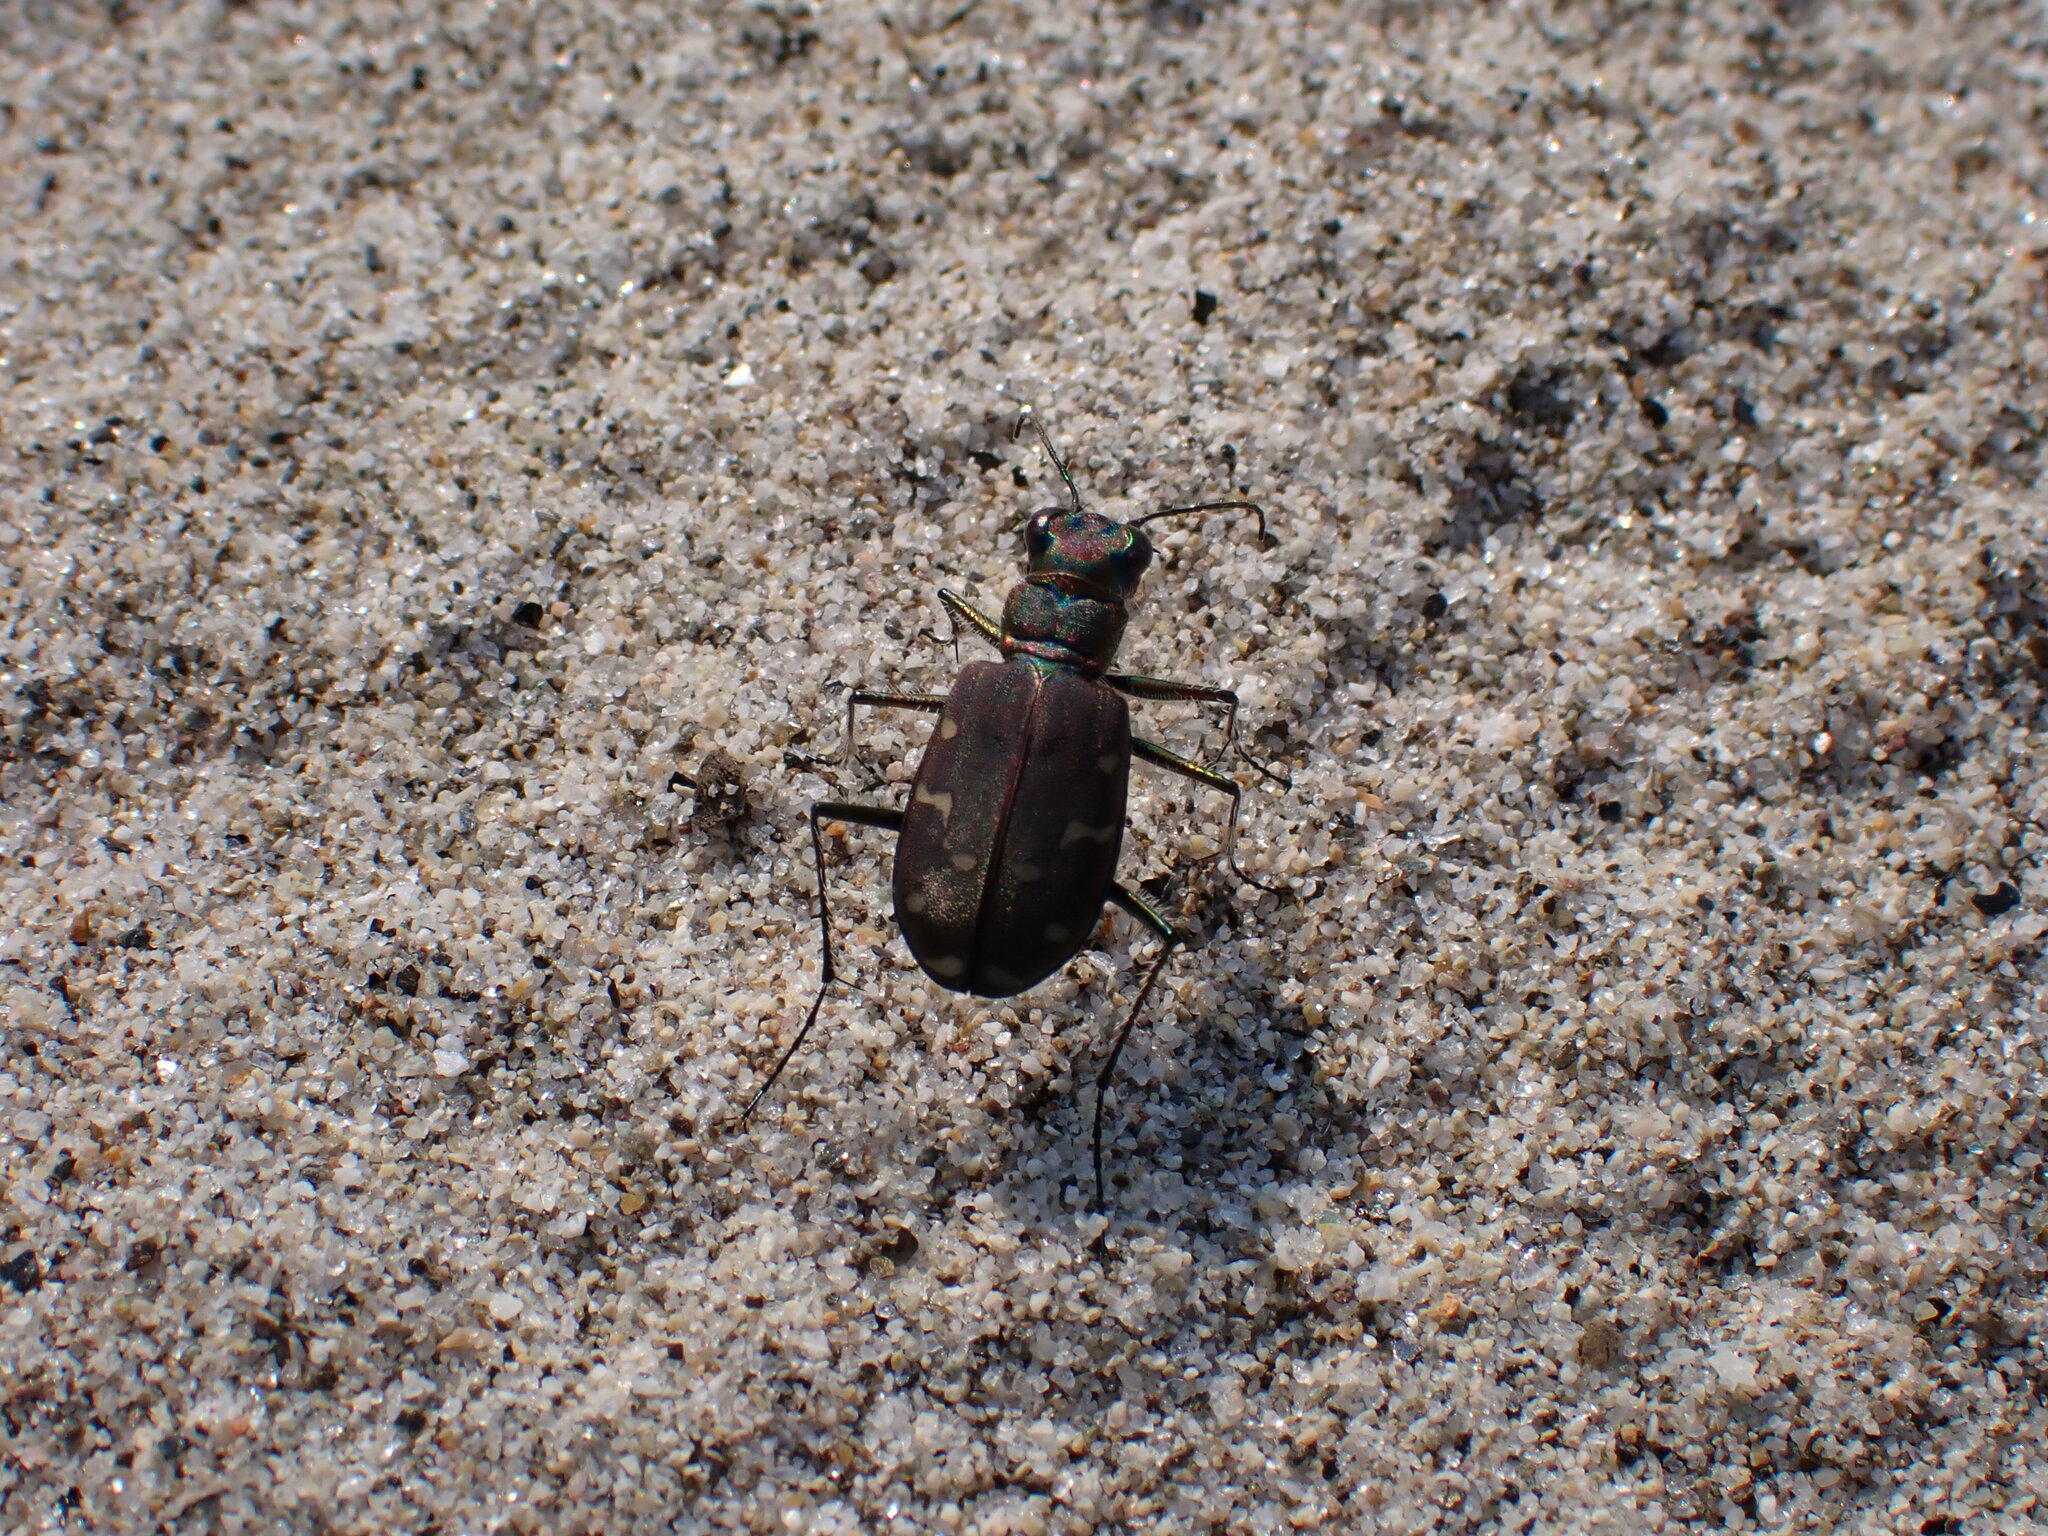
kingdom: Animalia
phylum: Arthropoda
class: Insecta
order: Coleoptera
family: Carabidae
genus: Cicindela
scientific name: Cicindela oregona
